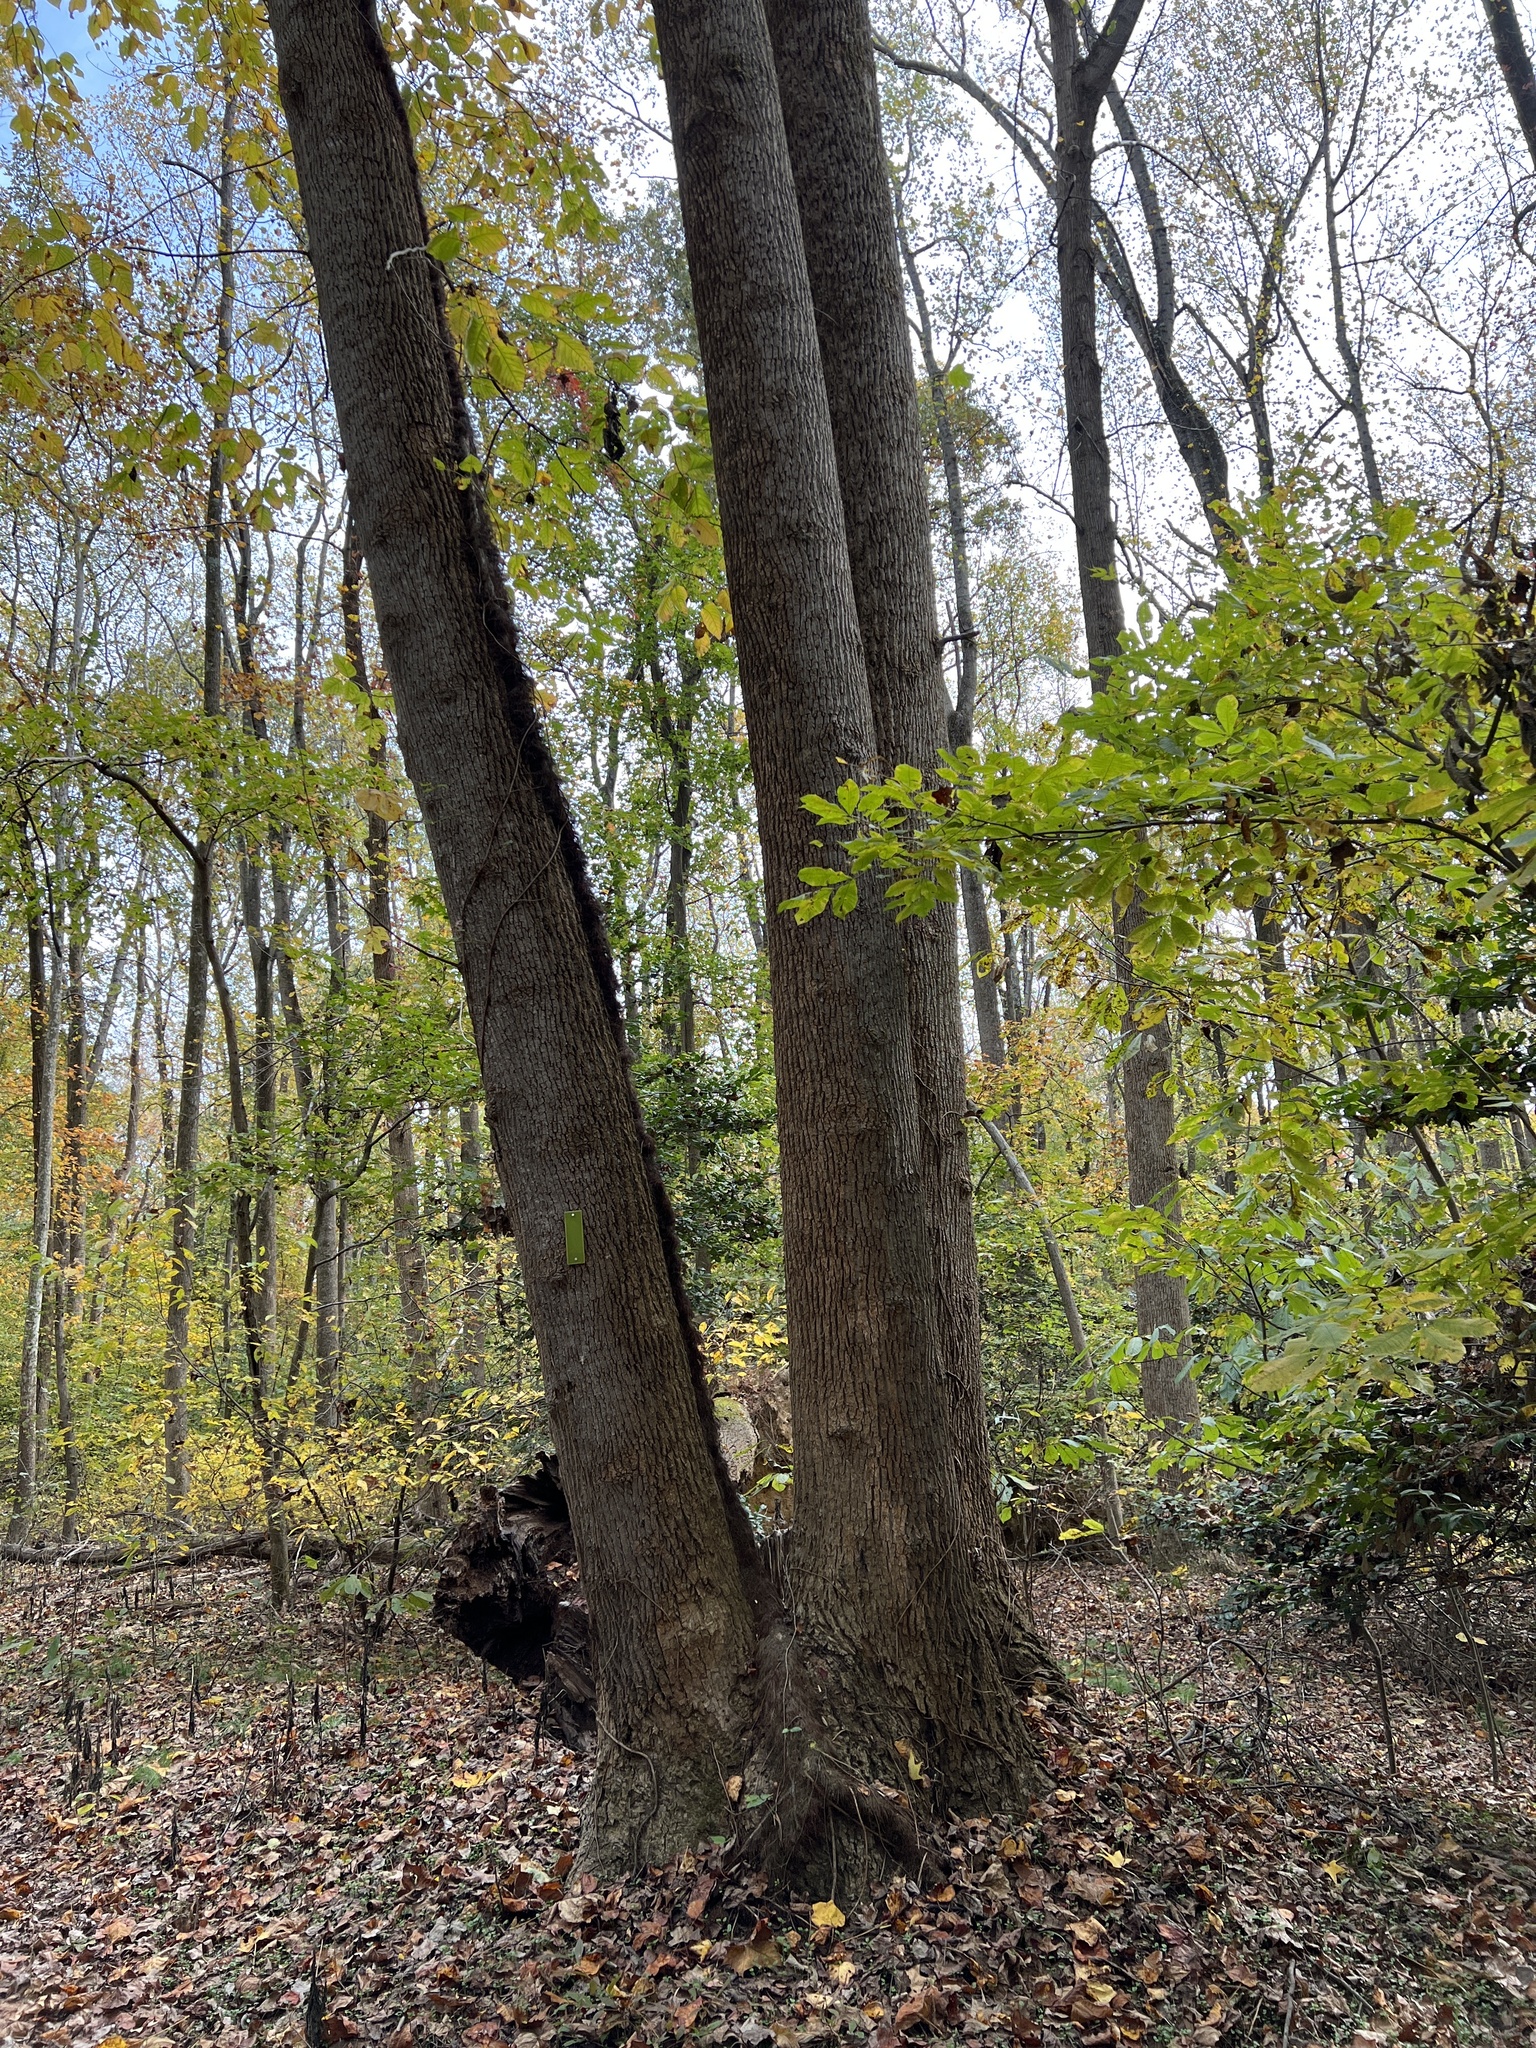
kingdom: Plantae
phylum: Tracheophyta
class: Magnoliopsida
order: Magnoliales
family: Magnoliaceae
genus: Liriodendron
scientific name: Liriodendron tulipifera
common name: Tulip tree
